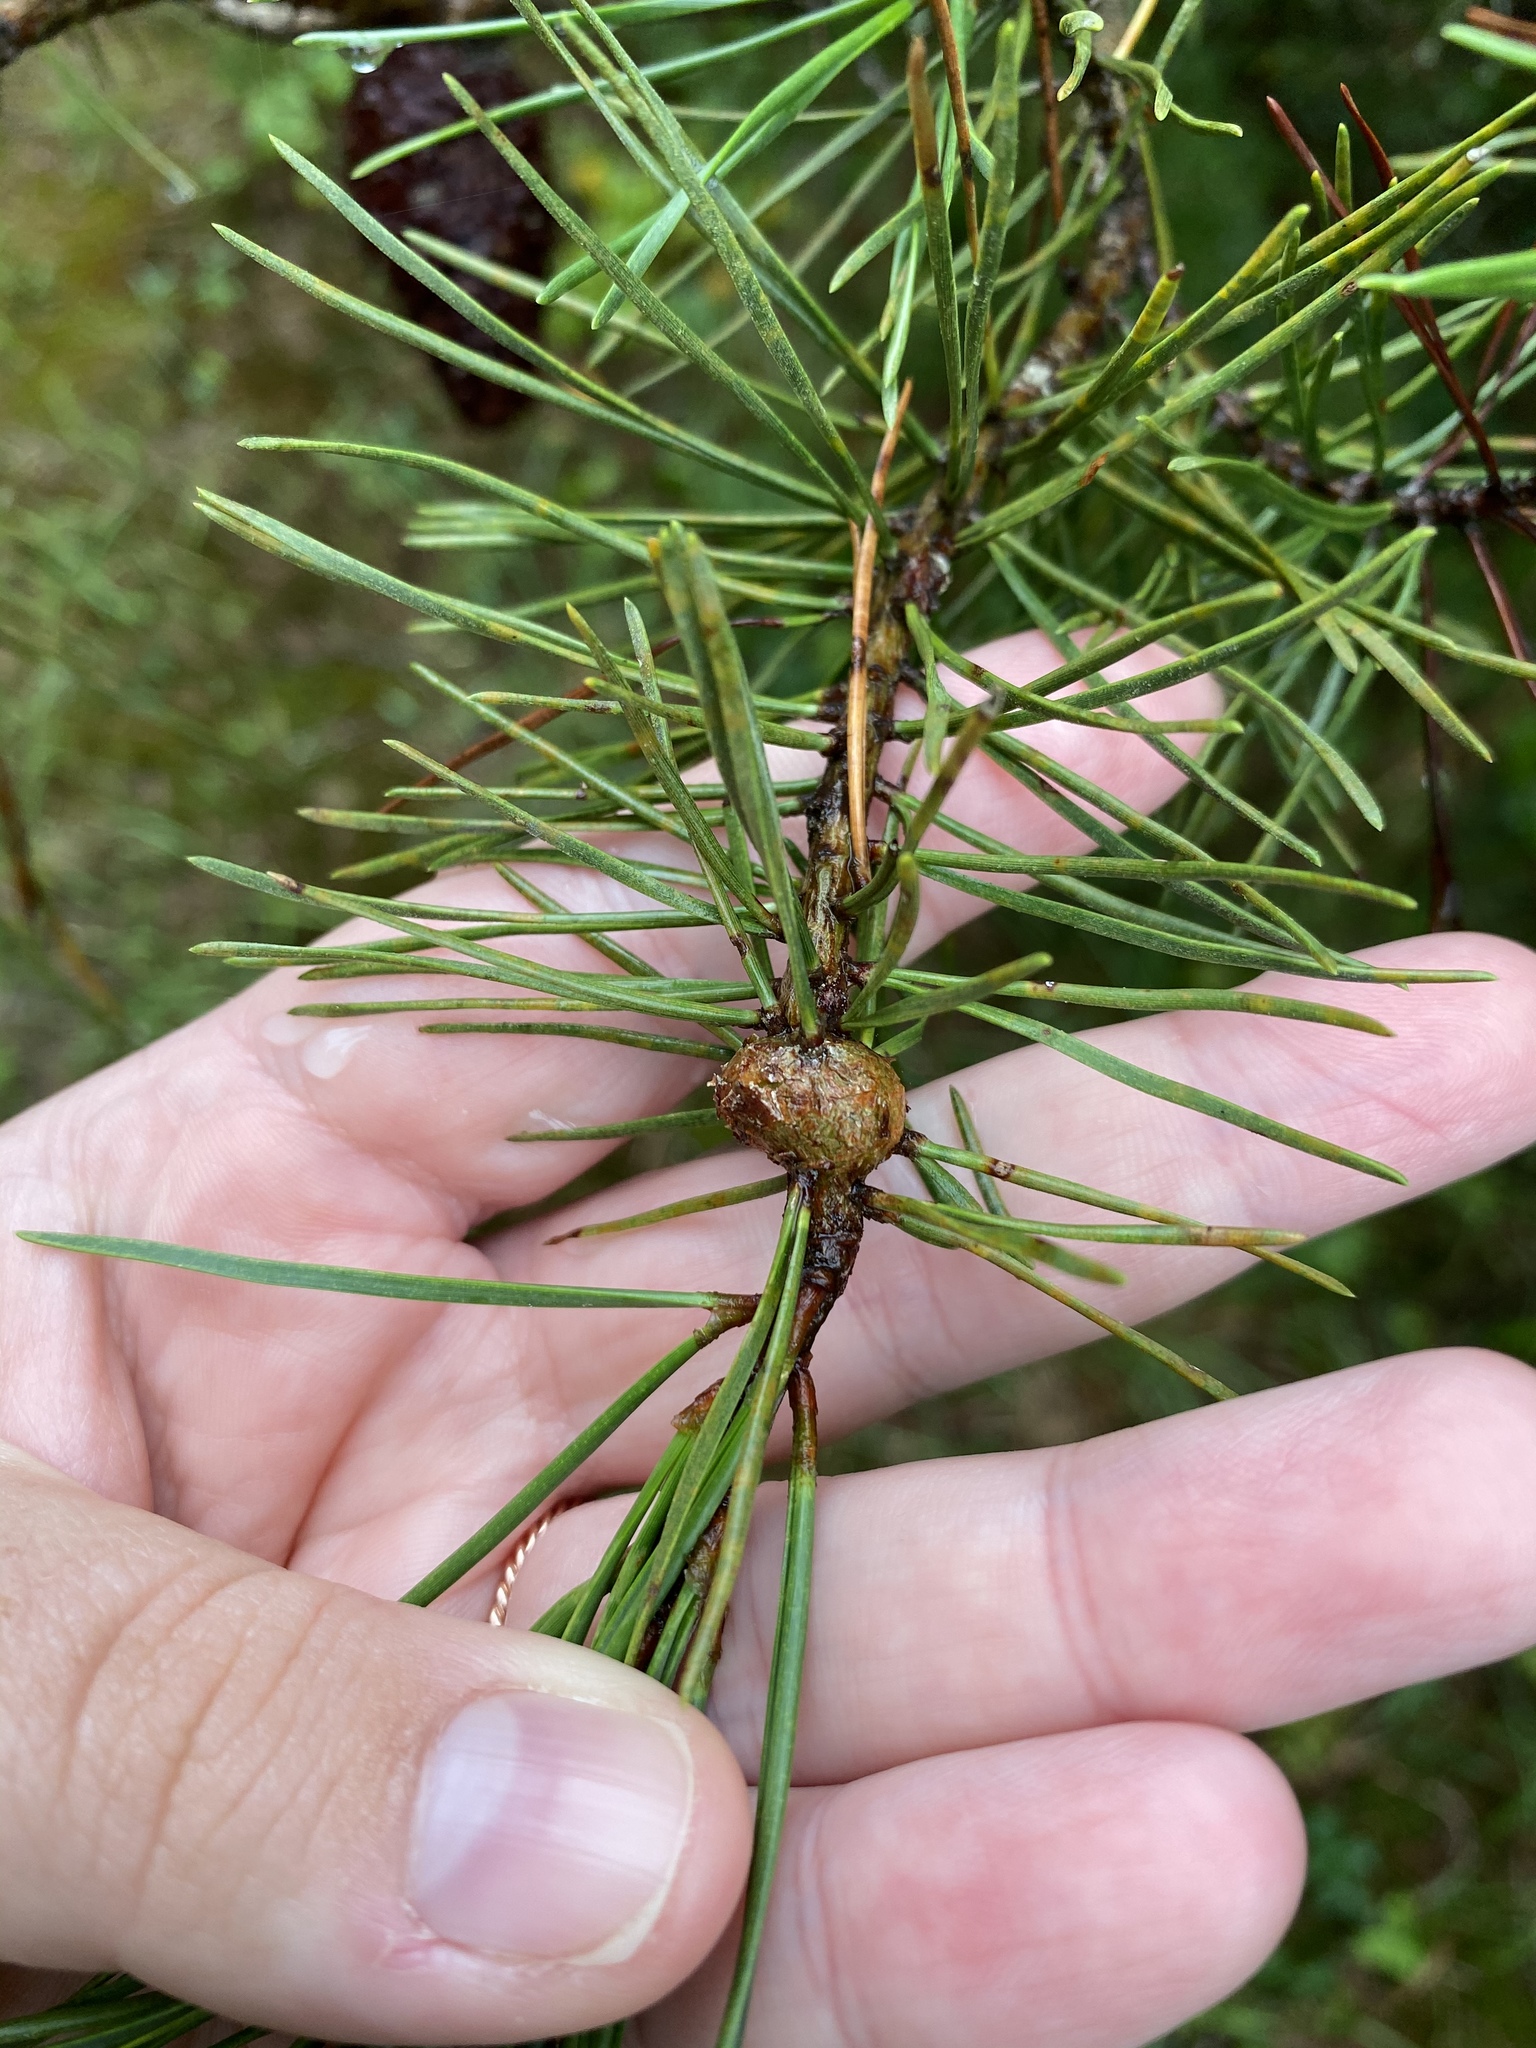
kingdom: Fungi
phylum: Basidiomycota
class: Pucciniomycetes
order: Pucciniales
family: Cronartiaceae
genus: Cronartium
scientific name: Cronartium
